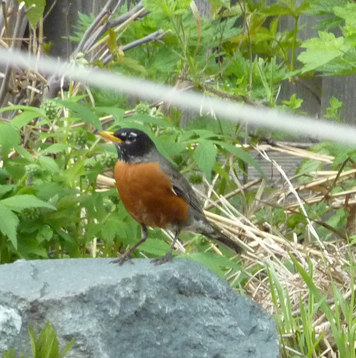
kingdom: Animalia
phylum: Chordata
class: Aves
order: Passeriformes
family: Turdidae
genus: Turdus
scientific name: Turdus migratorius
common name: American robin
